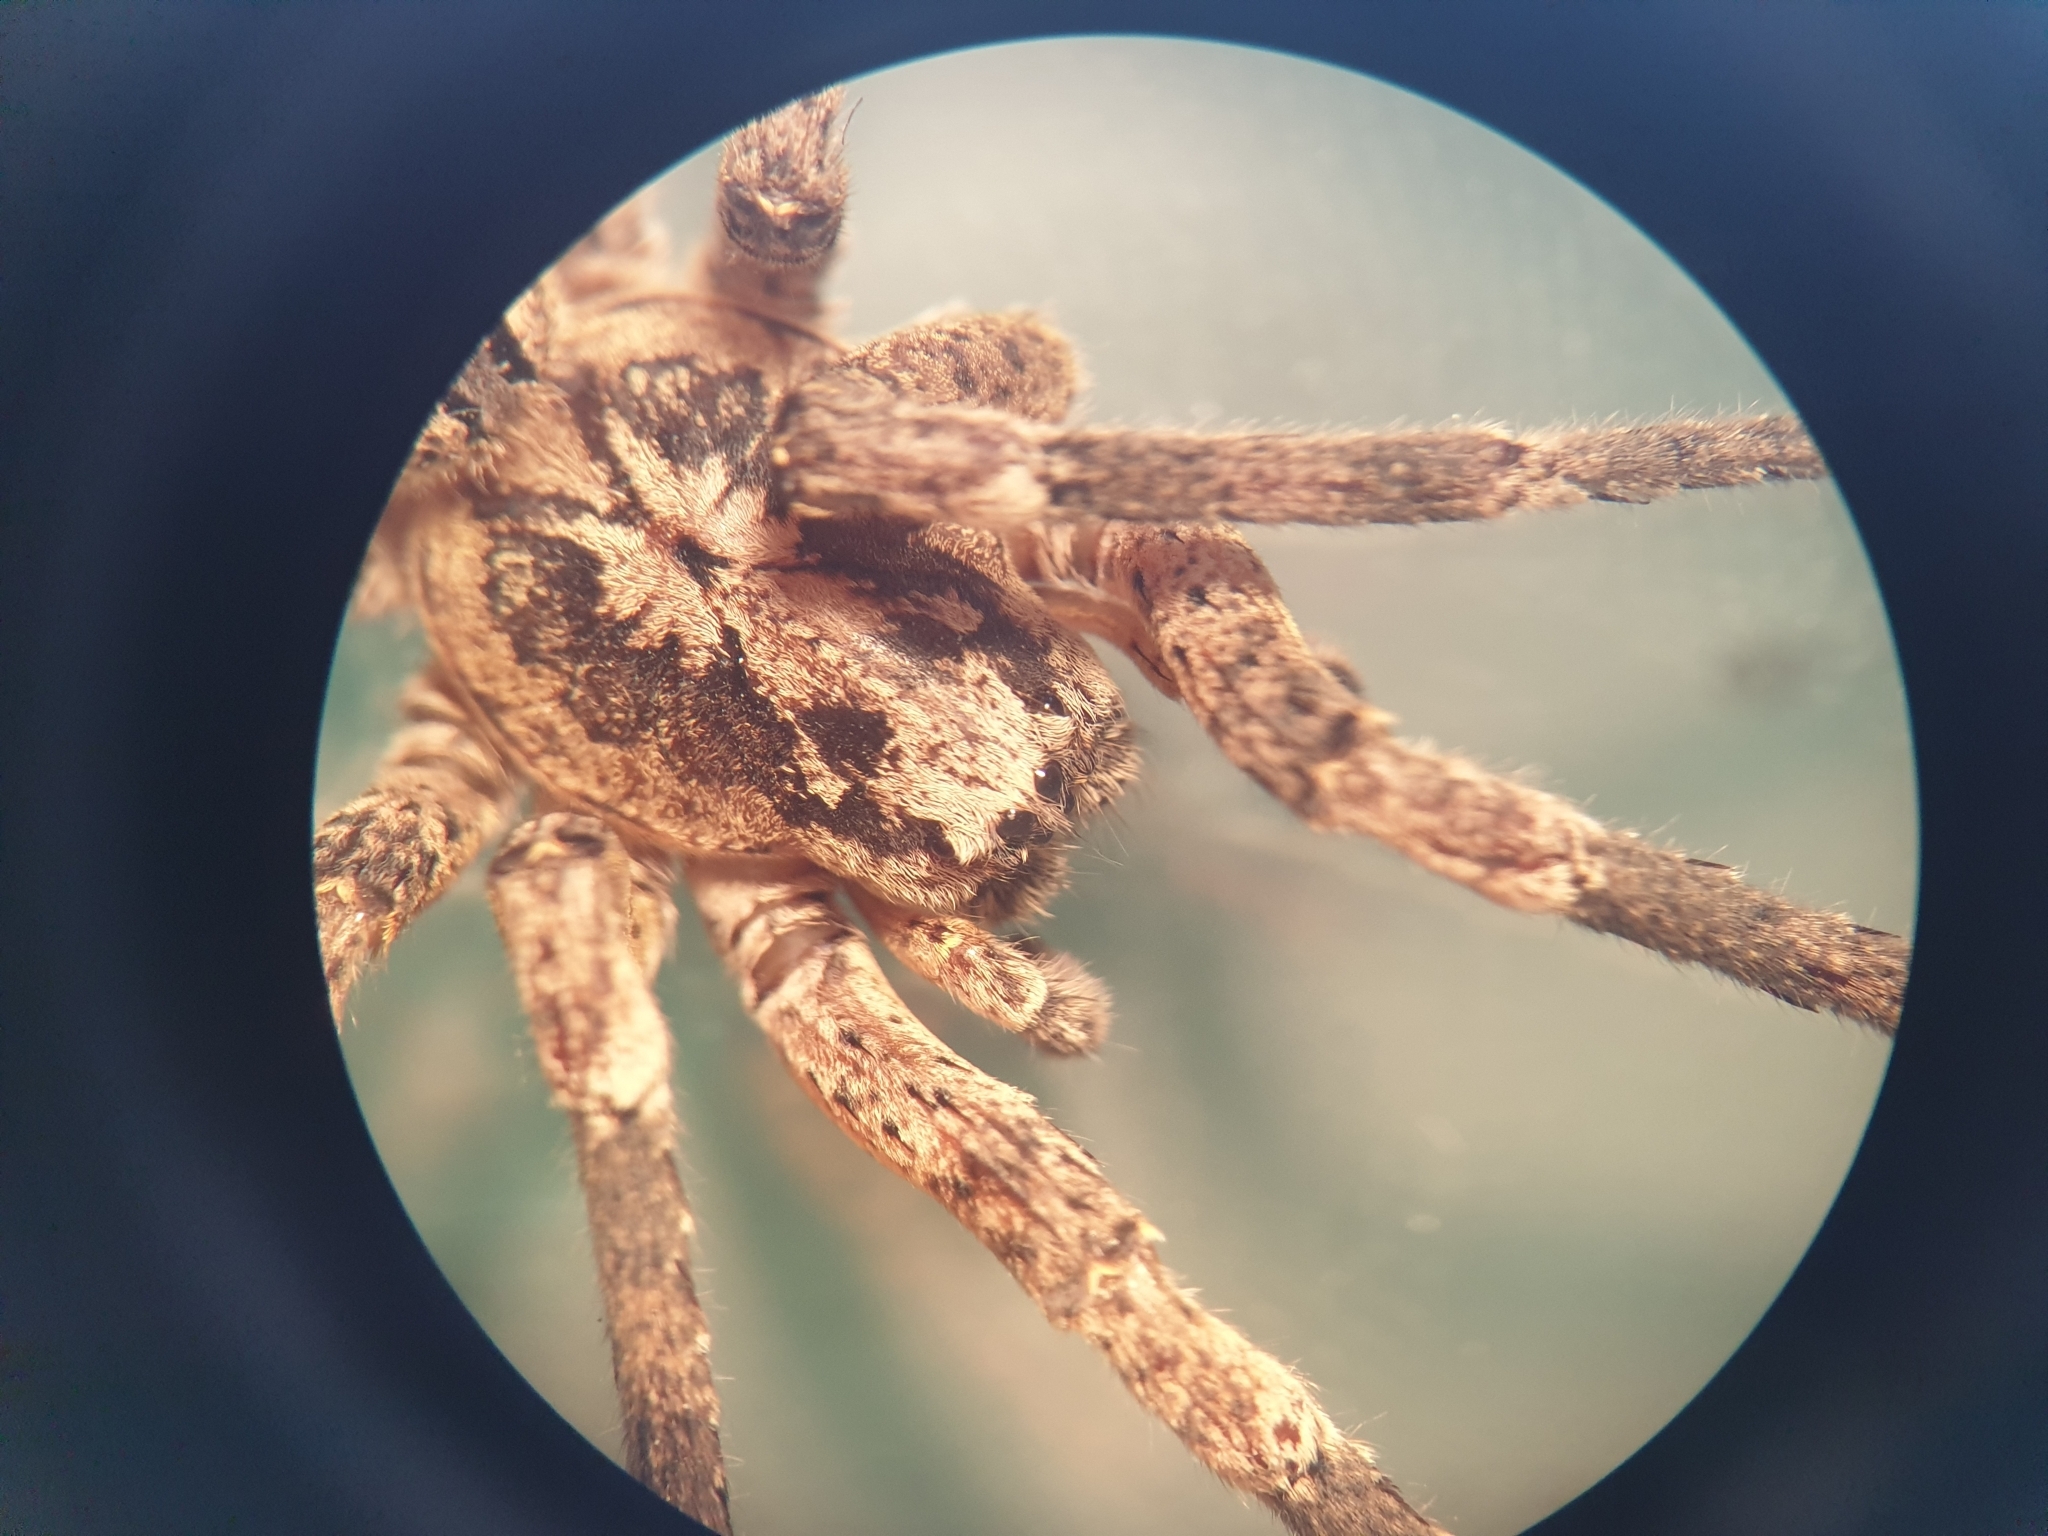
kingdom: Animalia
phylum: Arthropoda
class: Arachnida
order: Araneae
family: Zoropsidae
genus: Zoropsis
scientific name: Zoropsis spinimana
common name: Zoropsid spider
